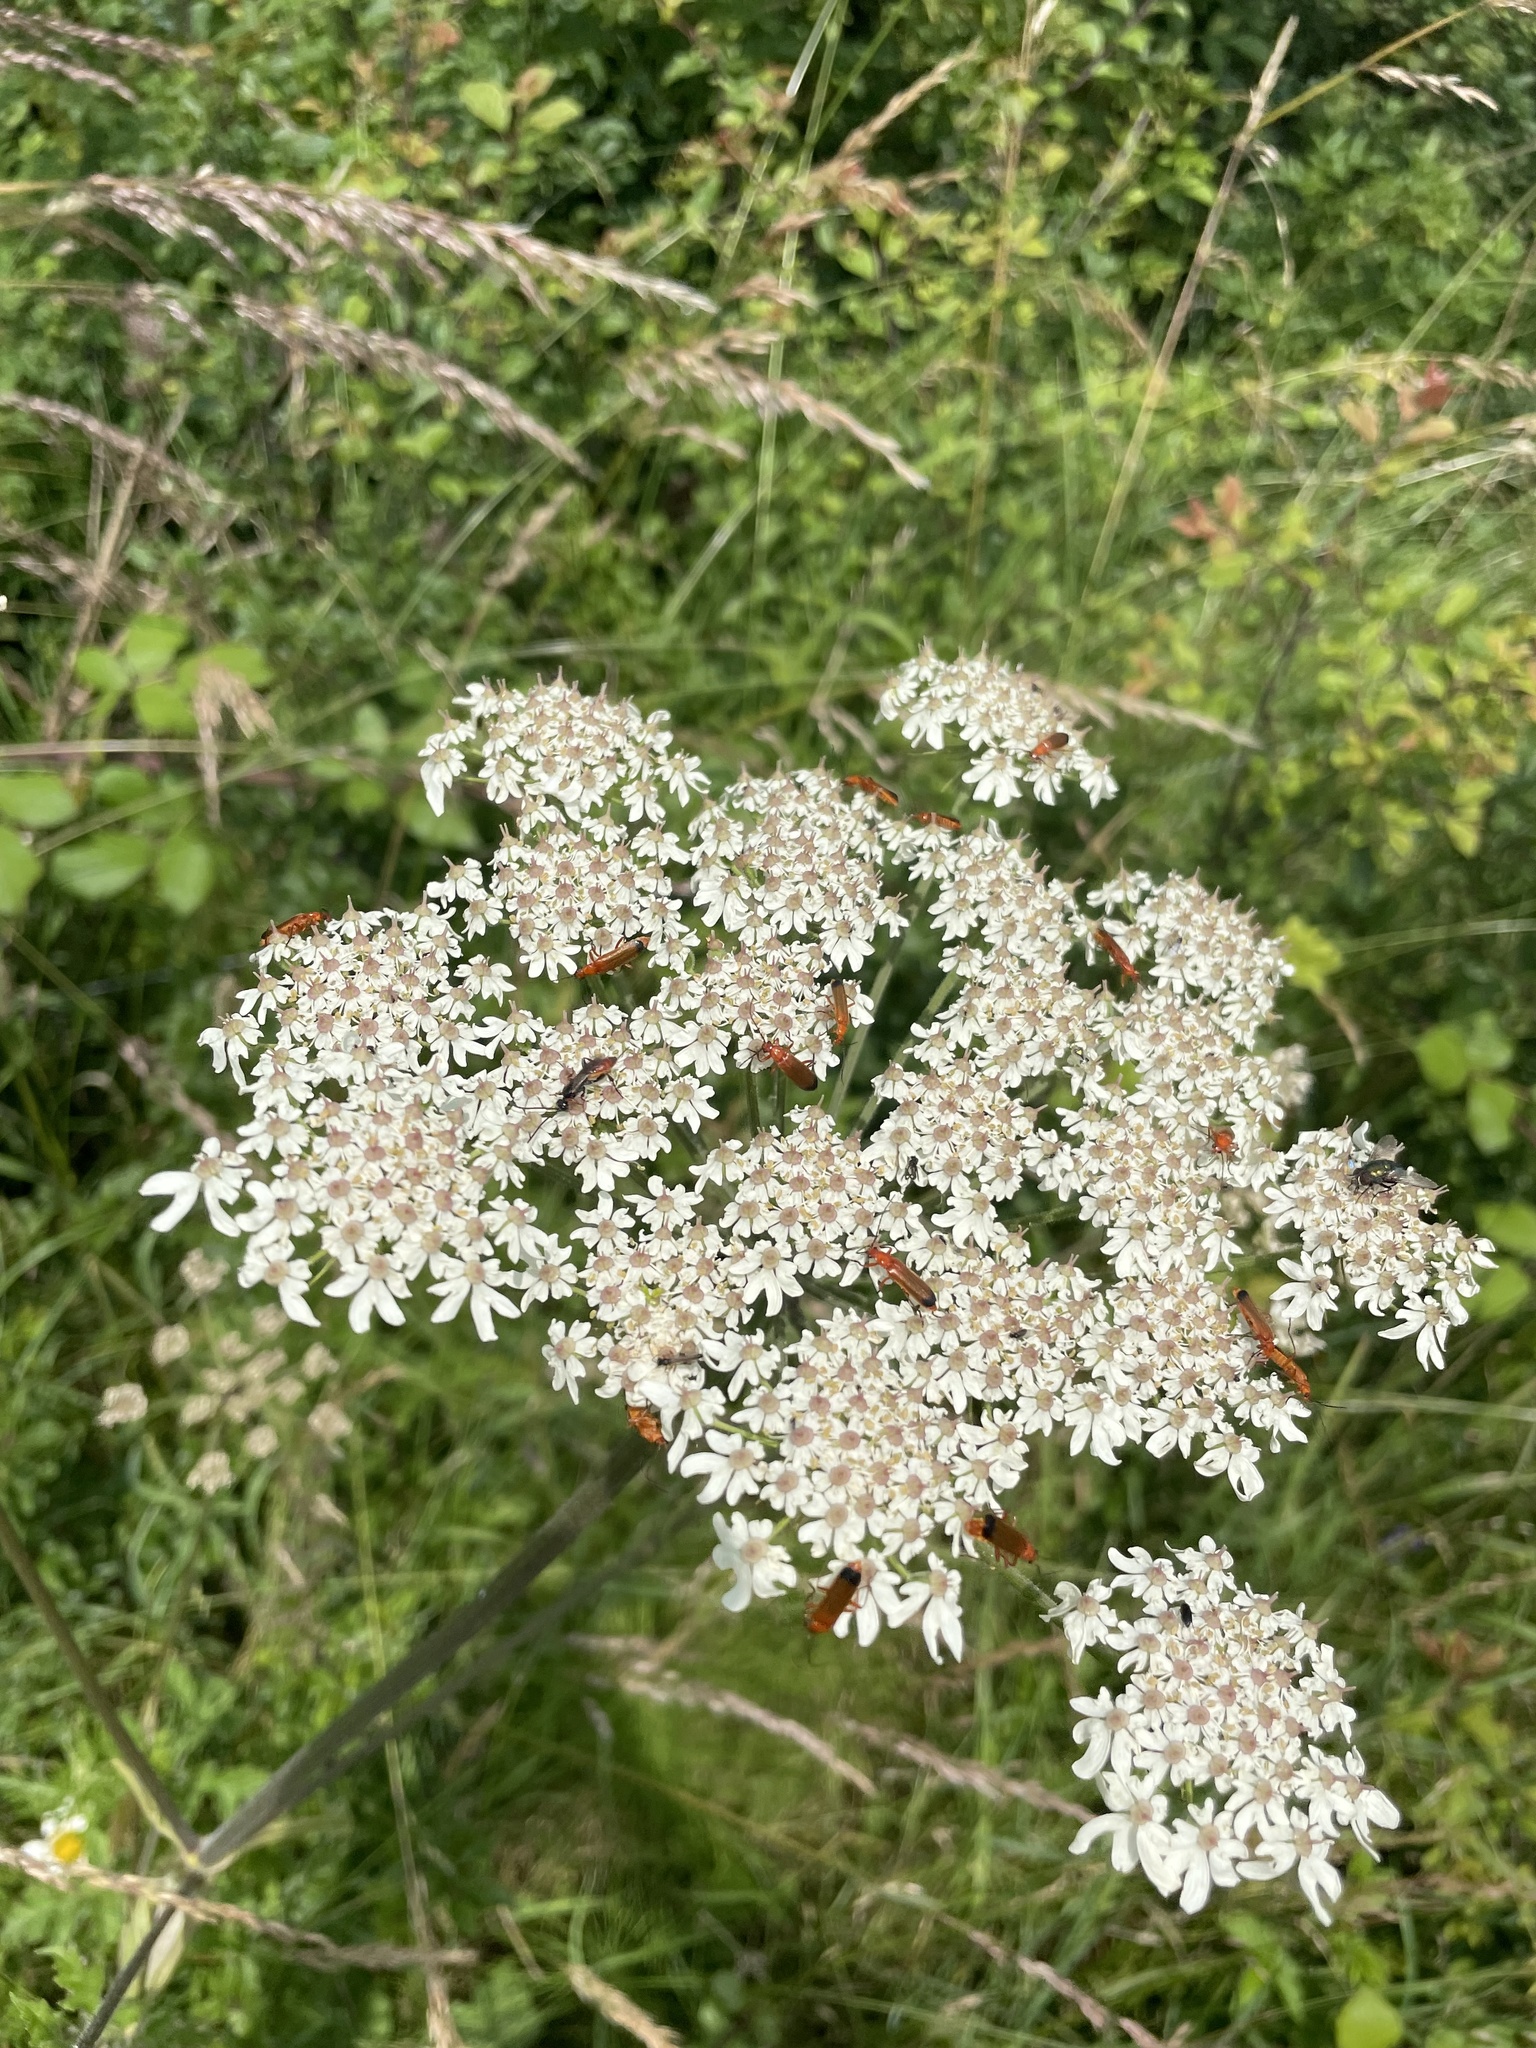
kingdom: Animalia
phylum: Arthropoda
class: Insecta
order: Coleoptera
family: Cantharidae
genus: Rhagonycha
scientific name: Rhagonycha fulva
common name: Common red soldier beetle
